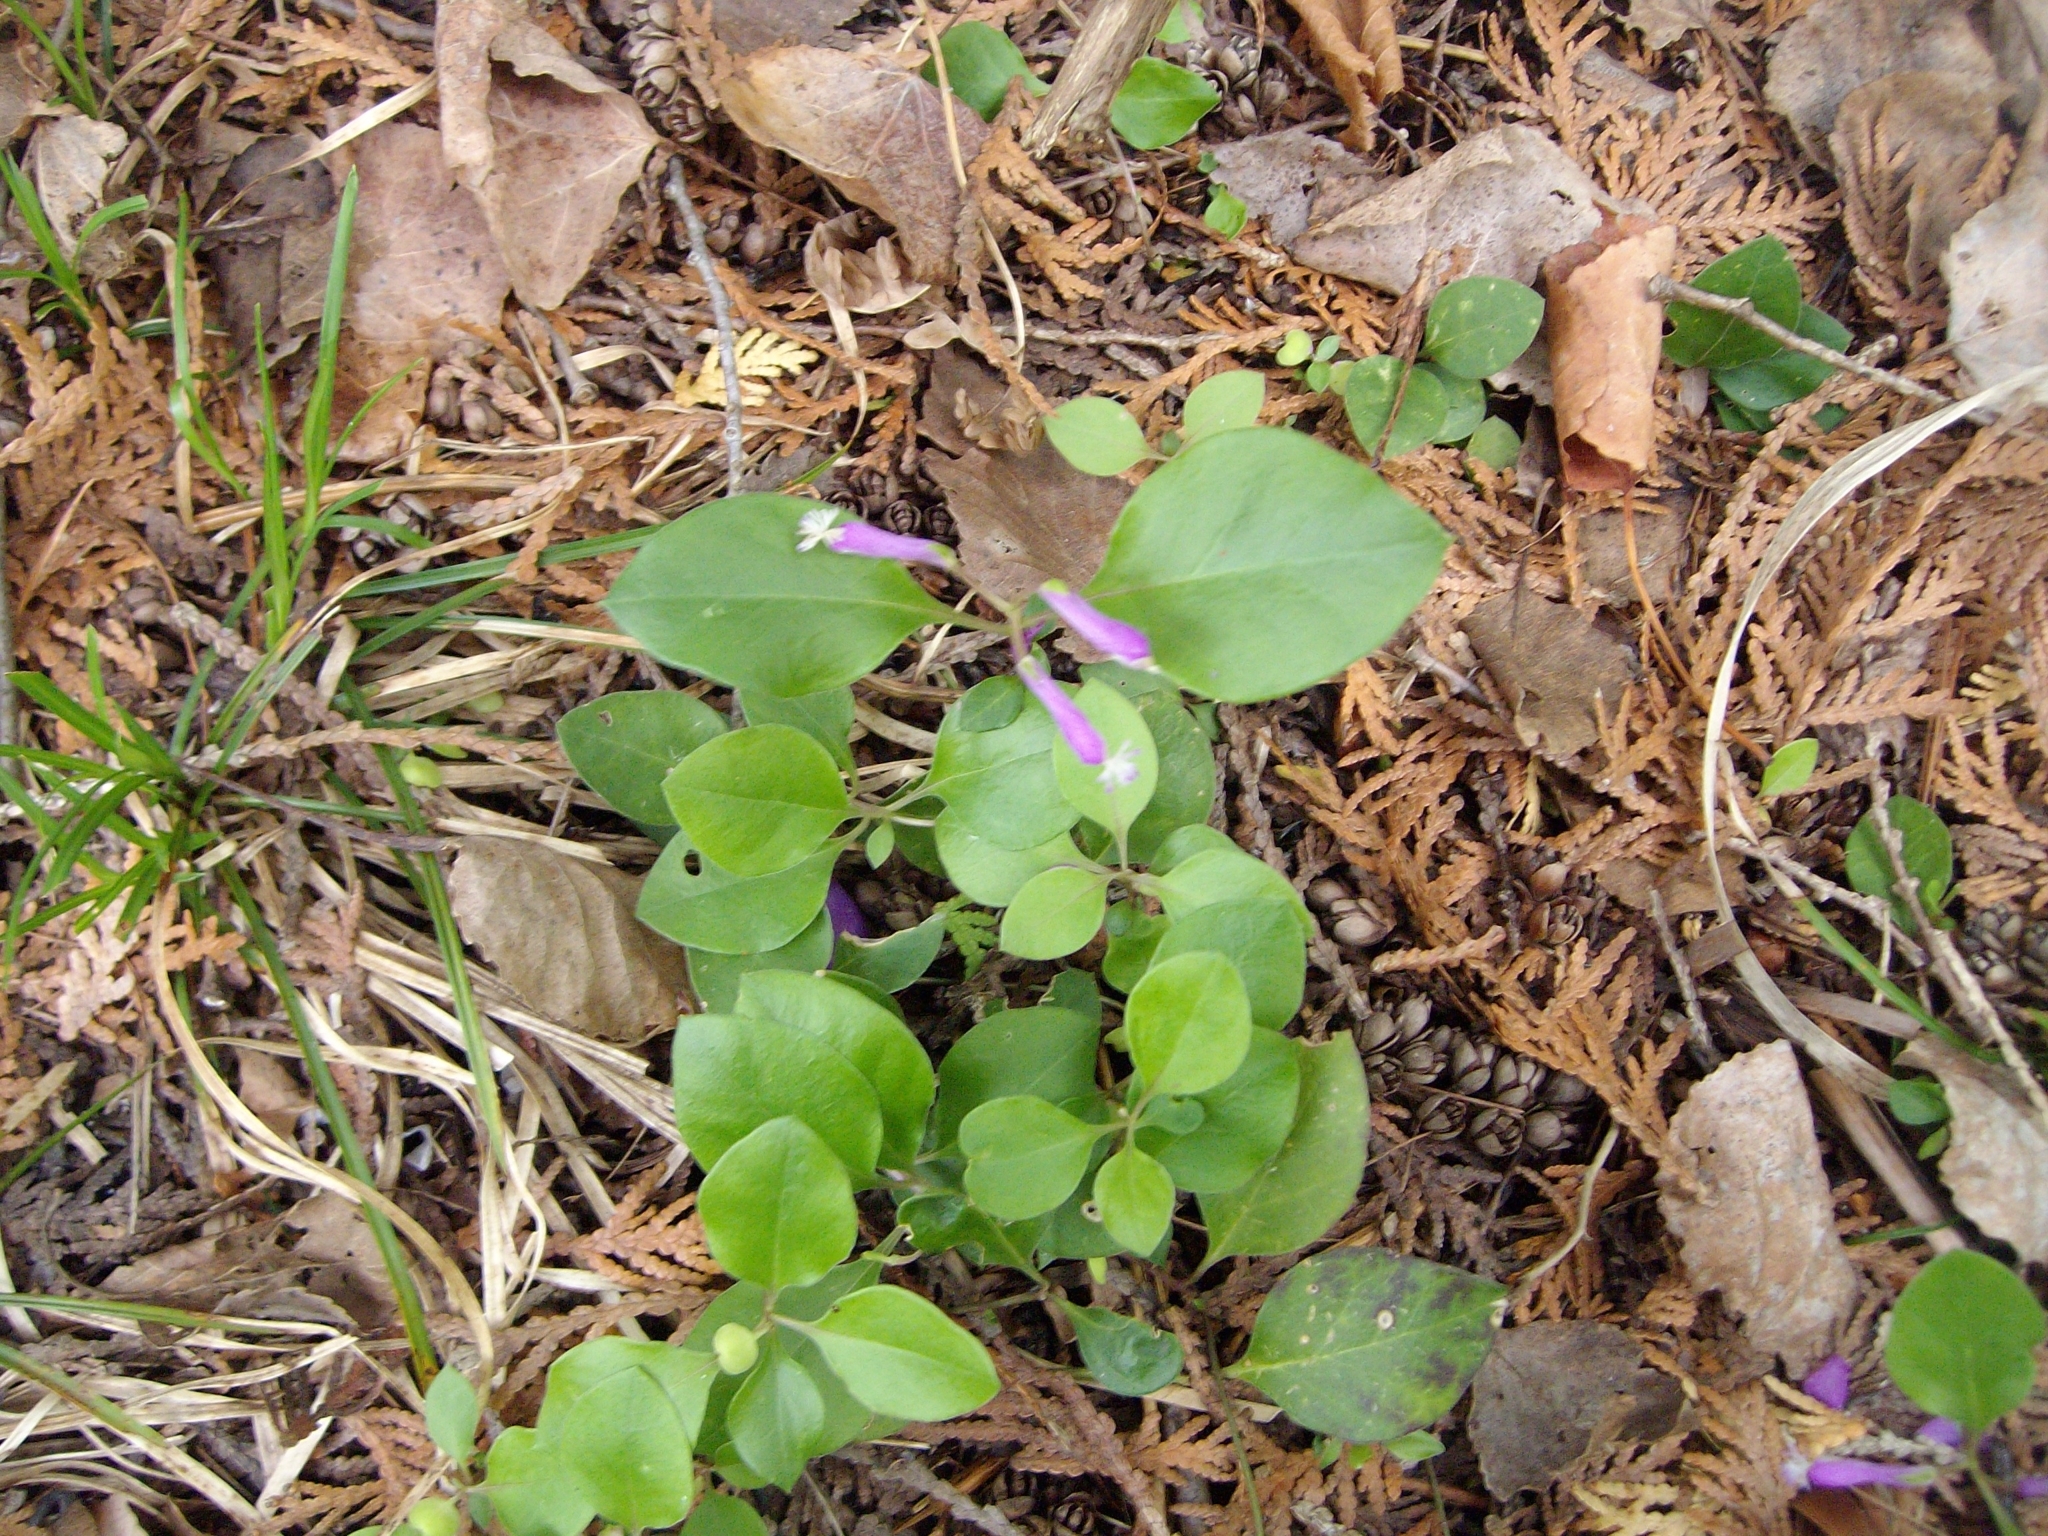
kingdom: Plantae
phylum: Tracheophyta
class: Magnoliopsida
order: Fabales
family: Polygalaceae
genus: Polygaloides
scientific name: Polygaloides paucifolia
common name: Bird-on-the-wing
